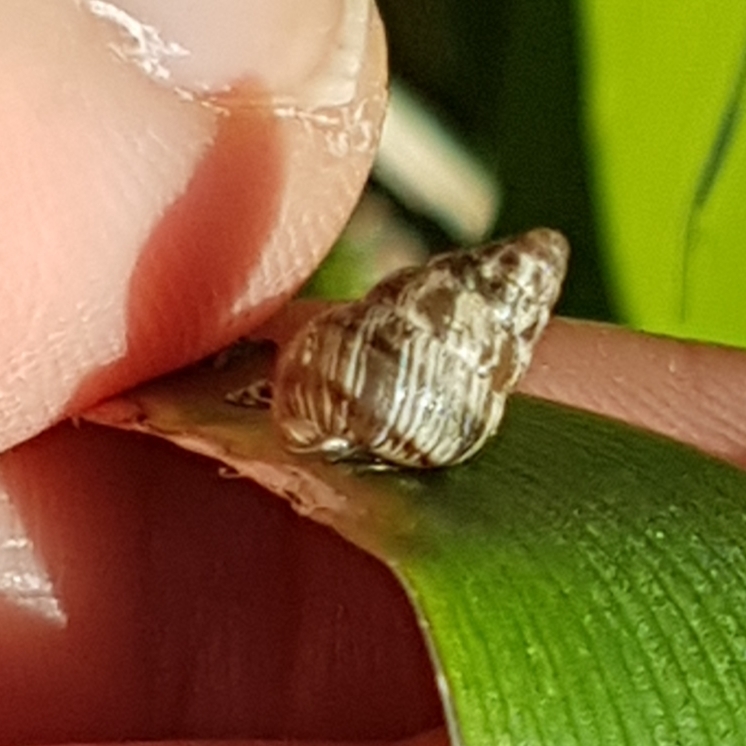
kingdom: Animalia
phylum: Mollusca
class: Gastropoda
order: Stylommatophora
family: Geomitridae
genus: Cochlicella
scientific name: Cochlicella barbara
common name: Potbellied helicellid
